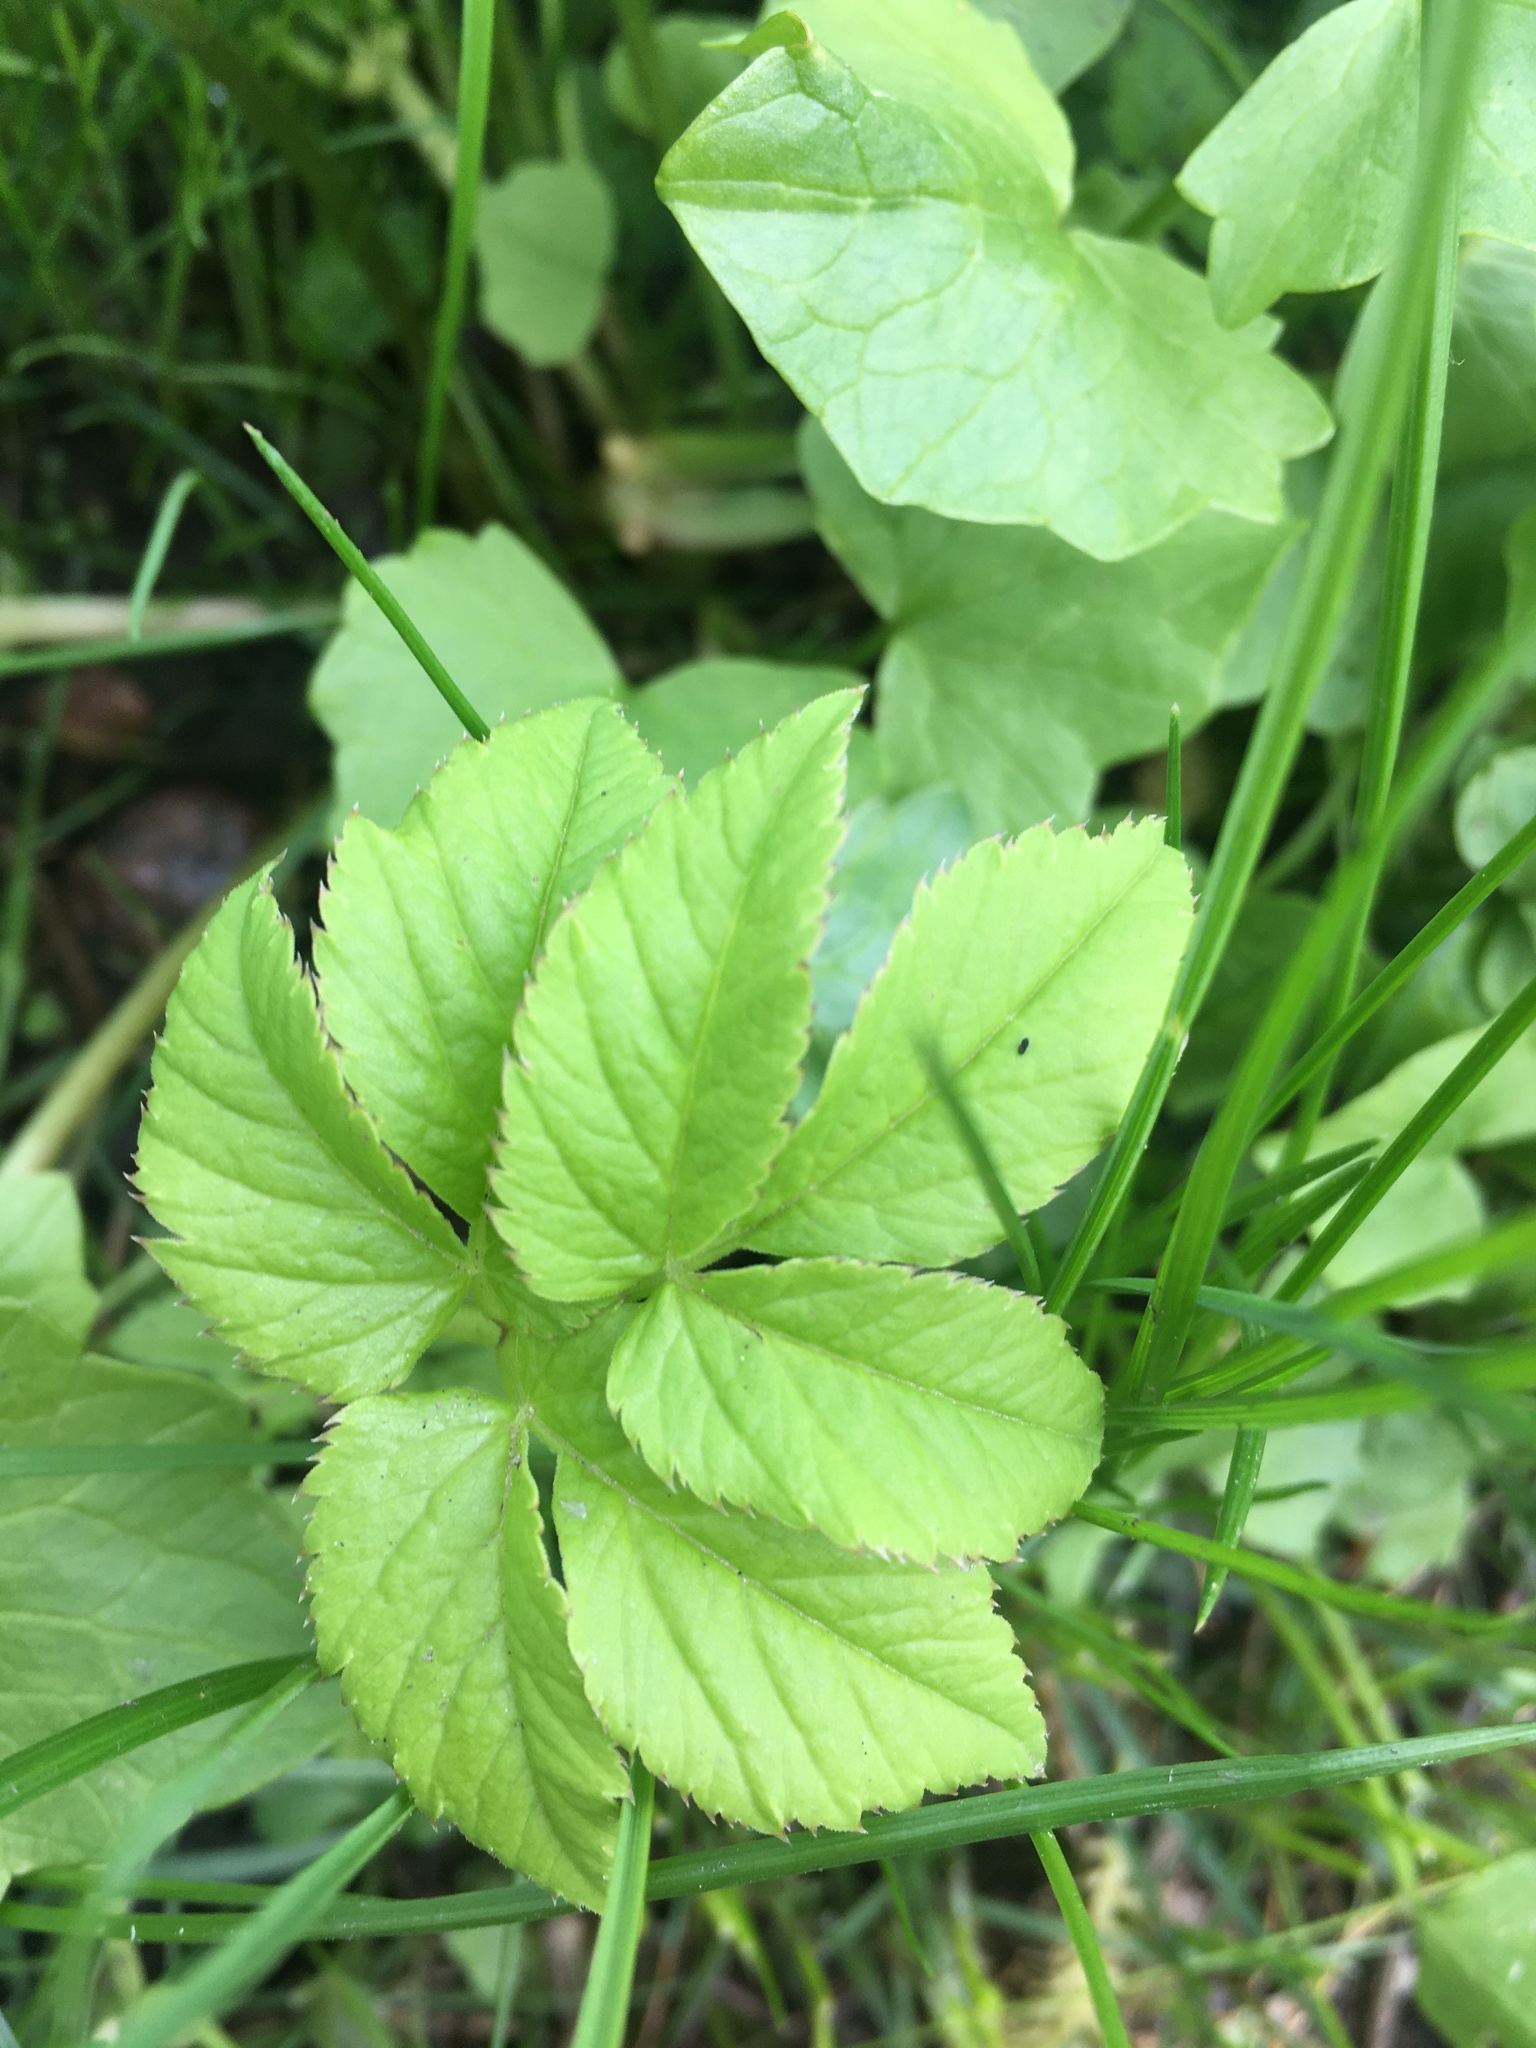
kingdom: Plantae
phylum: Tracheophyta
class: Magnoliopsida
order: Apiales
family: Apiaceae
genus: Aegopodium
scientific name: Aegopodium podagraria
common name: Ground-elder
